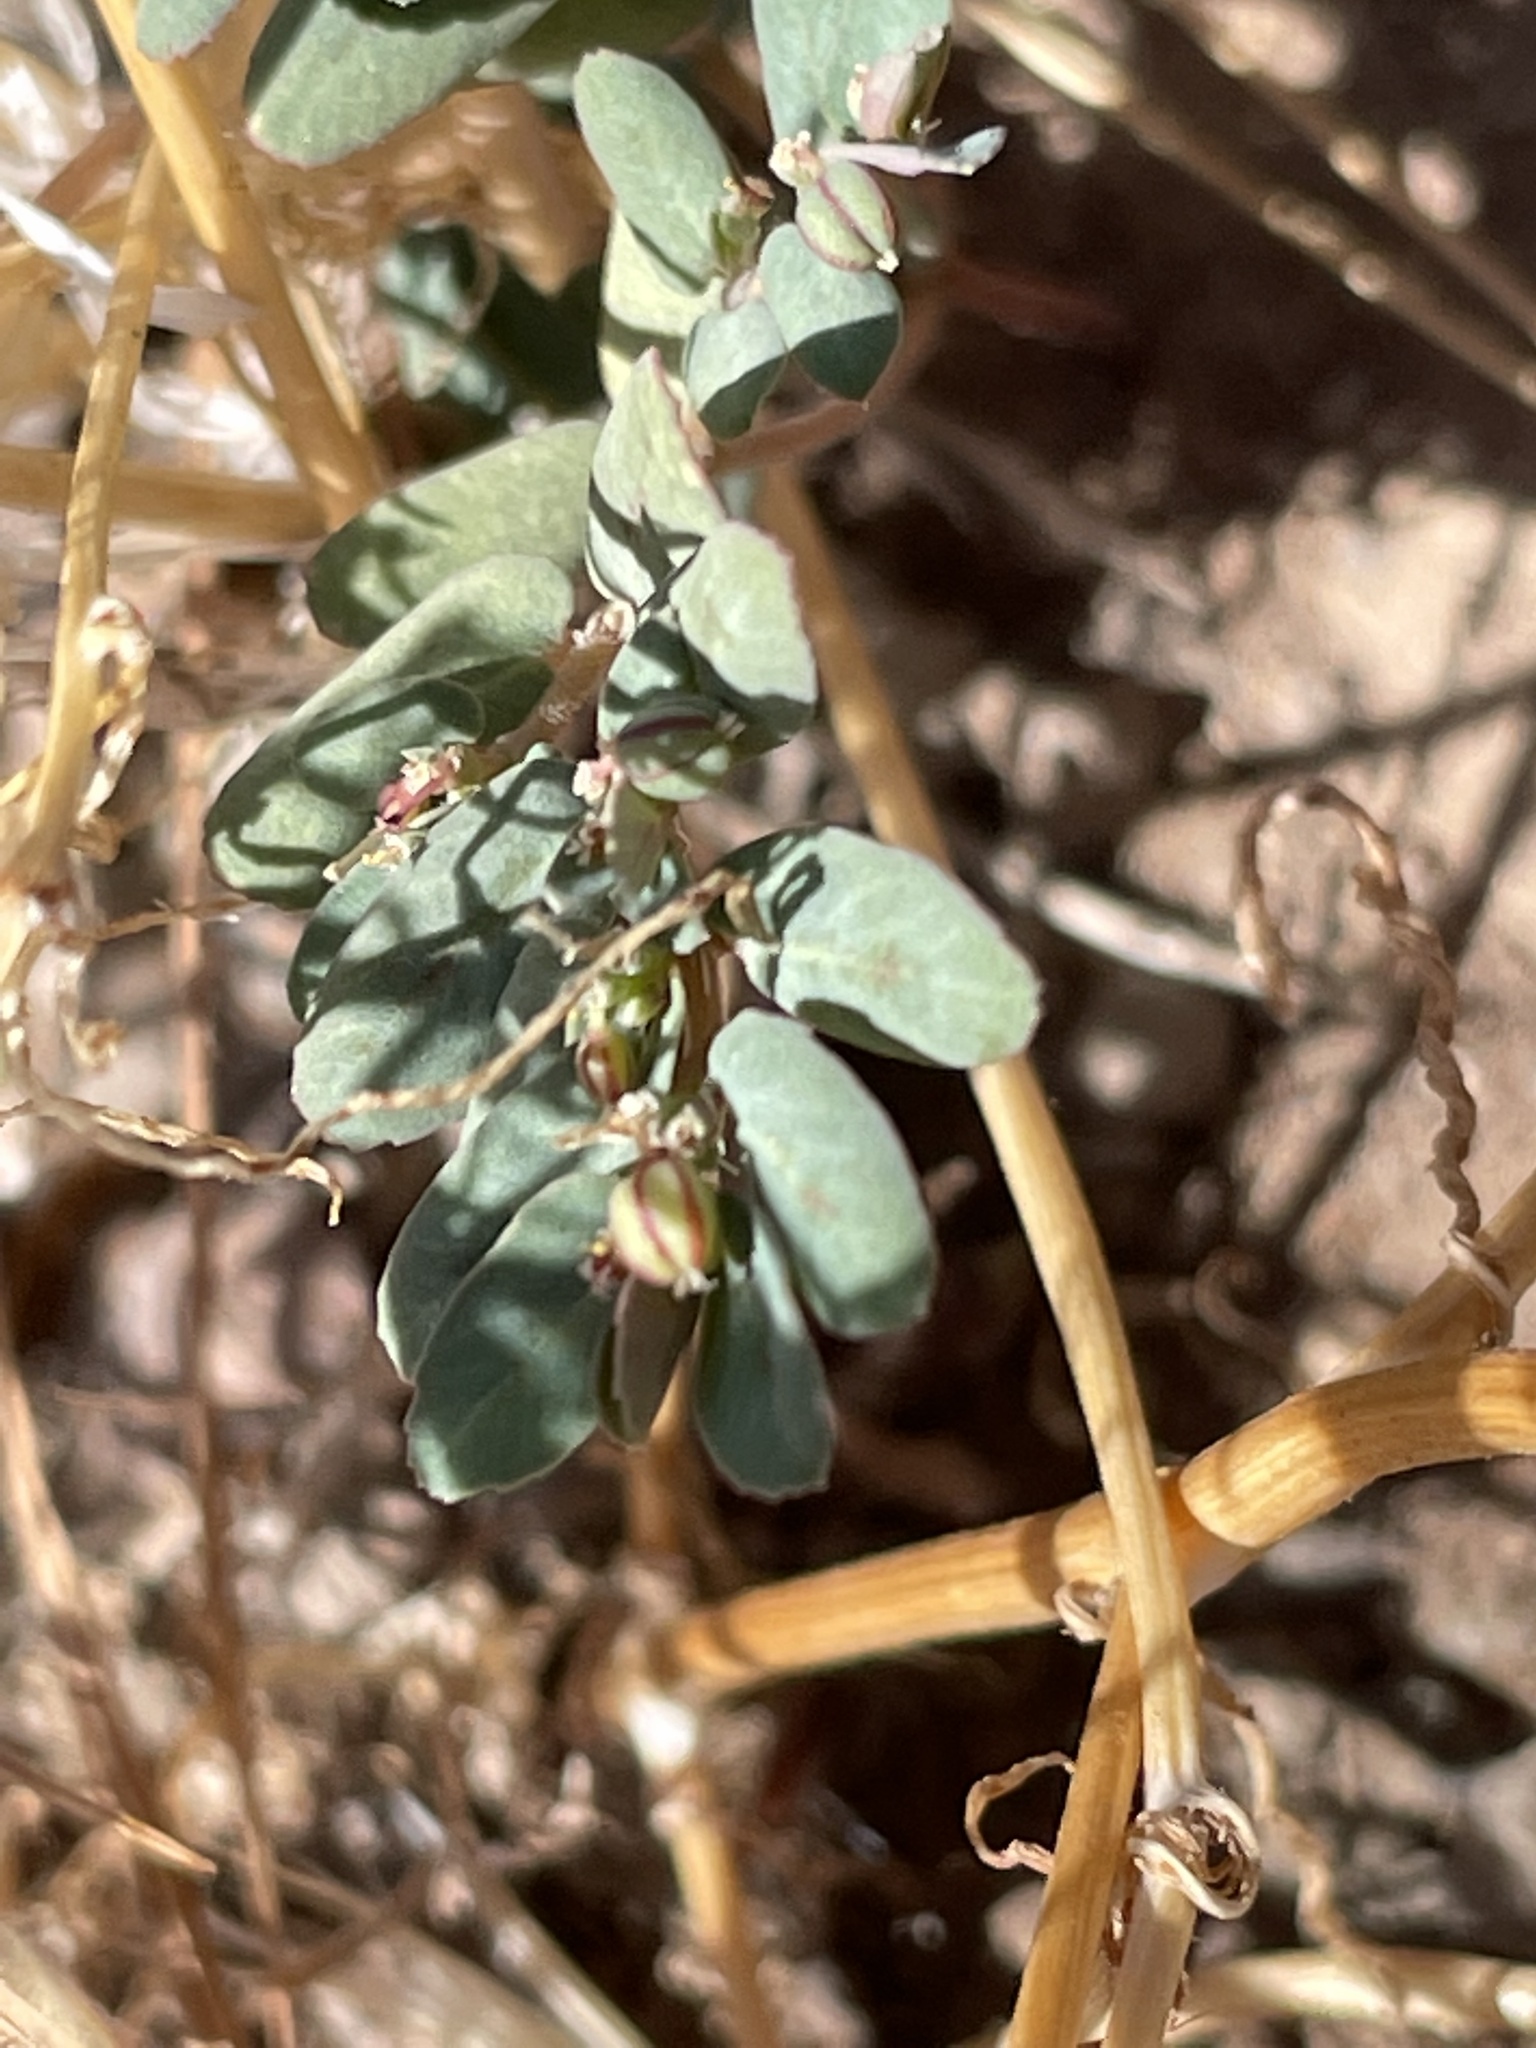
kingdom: Plantae
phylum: Tracheophyta
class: Magnoliopsida
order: Malpighiales
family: Euphorbiaceae
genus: Euphorbia
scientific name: Euphorbia abramsiana
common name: Abram's spurge
